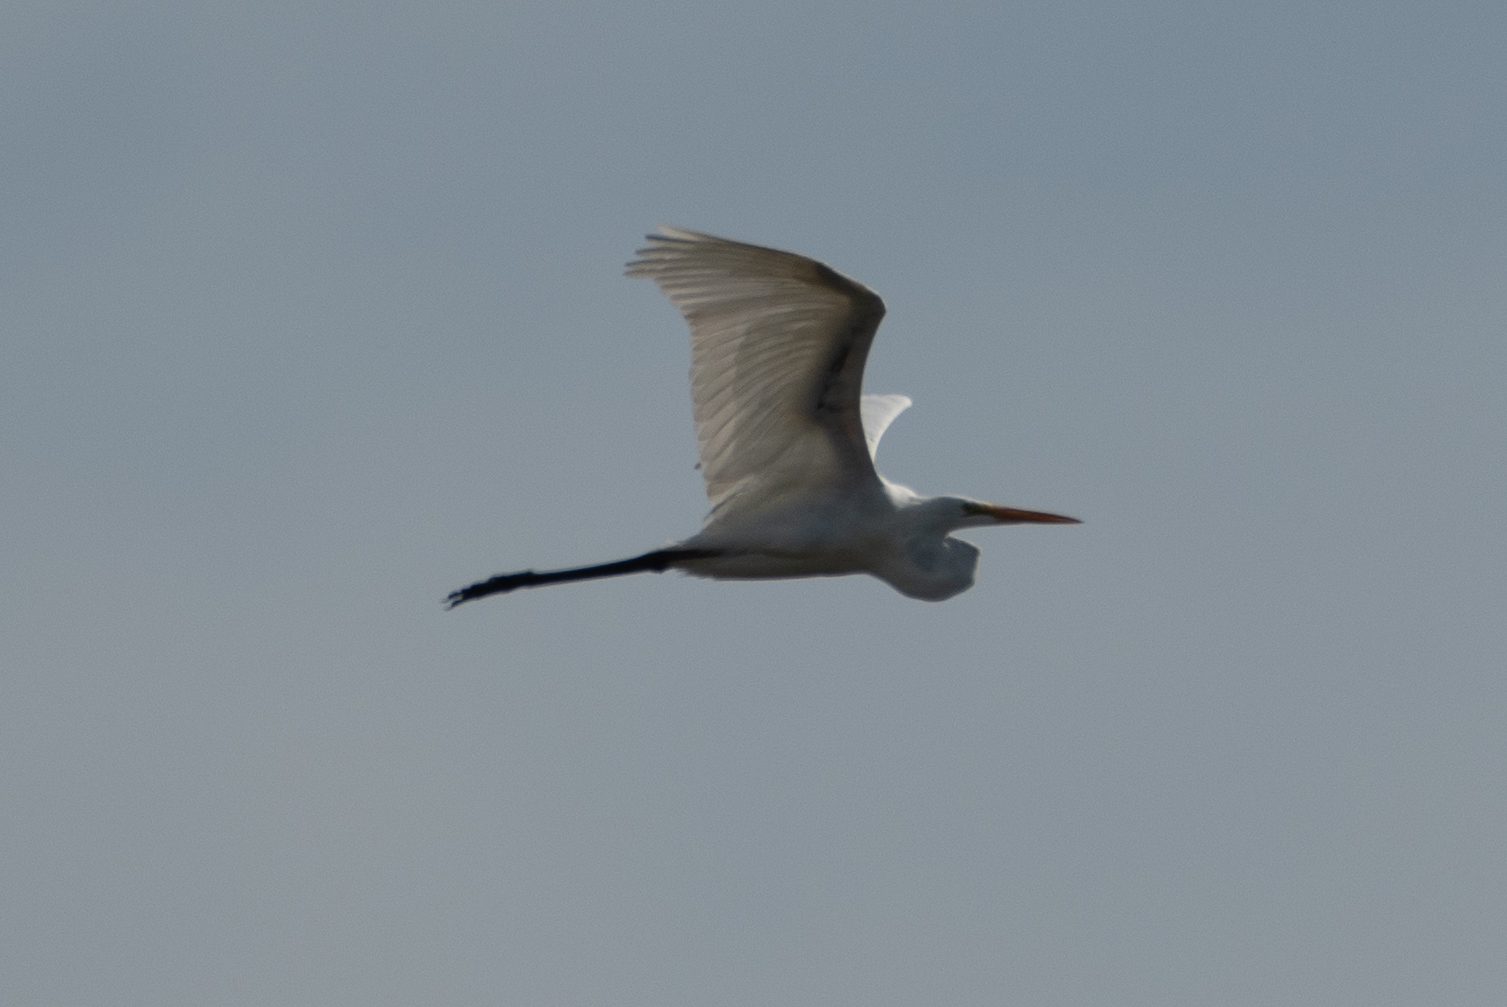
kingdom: Animalia
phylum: Chordata
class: Aves
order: Pelecaniformes
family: Ardeidae
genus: Ardea
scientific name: Ardea alba
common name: Great egret
